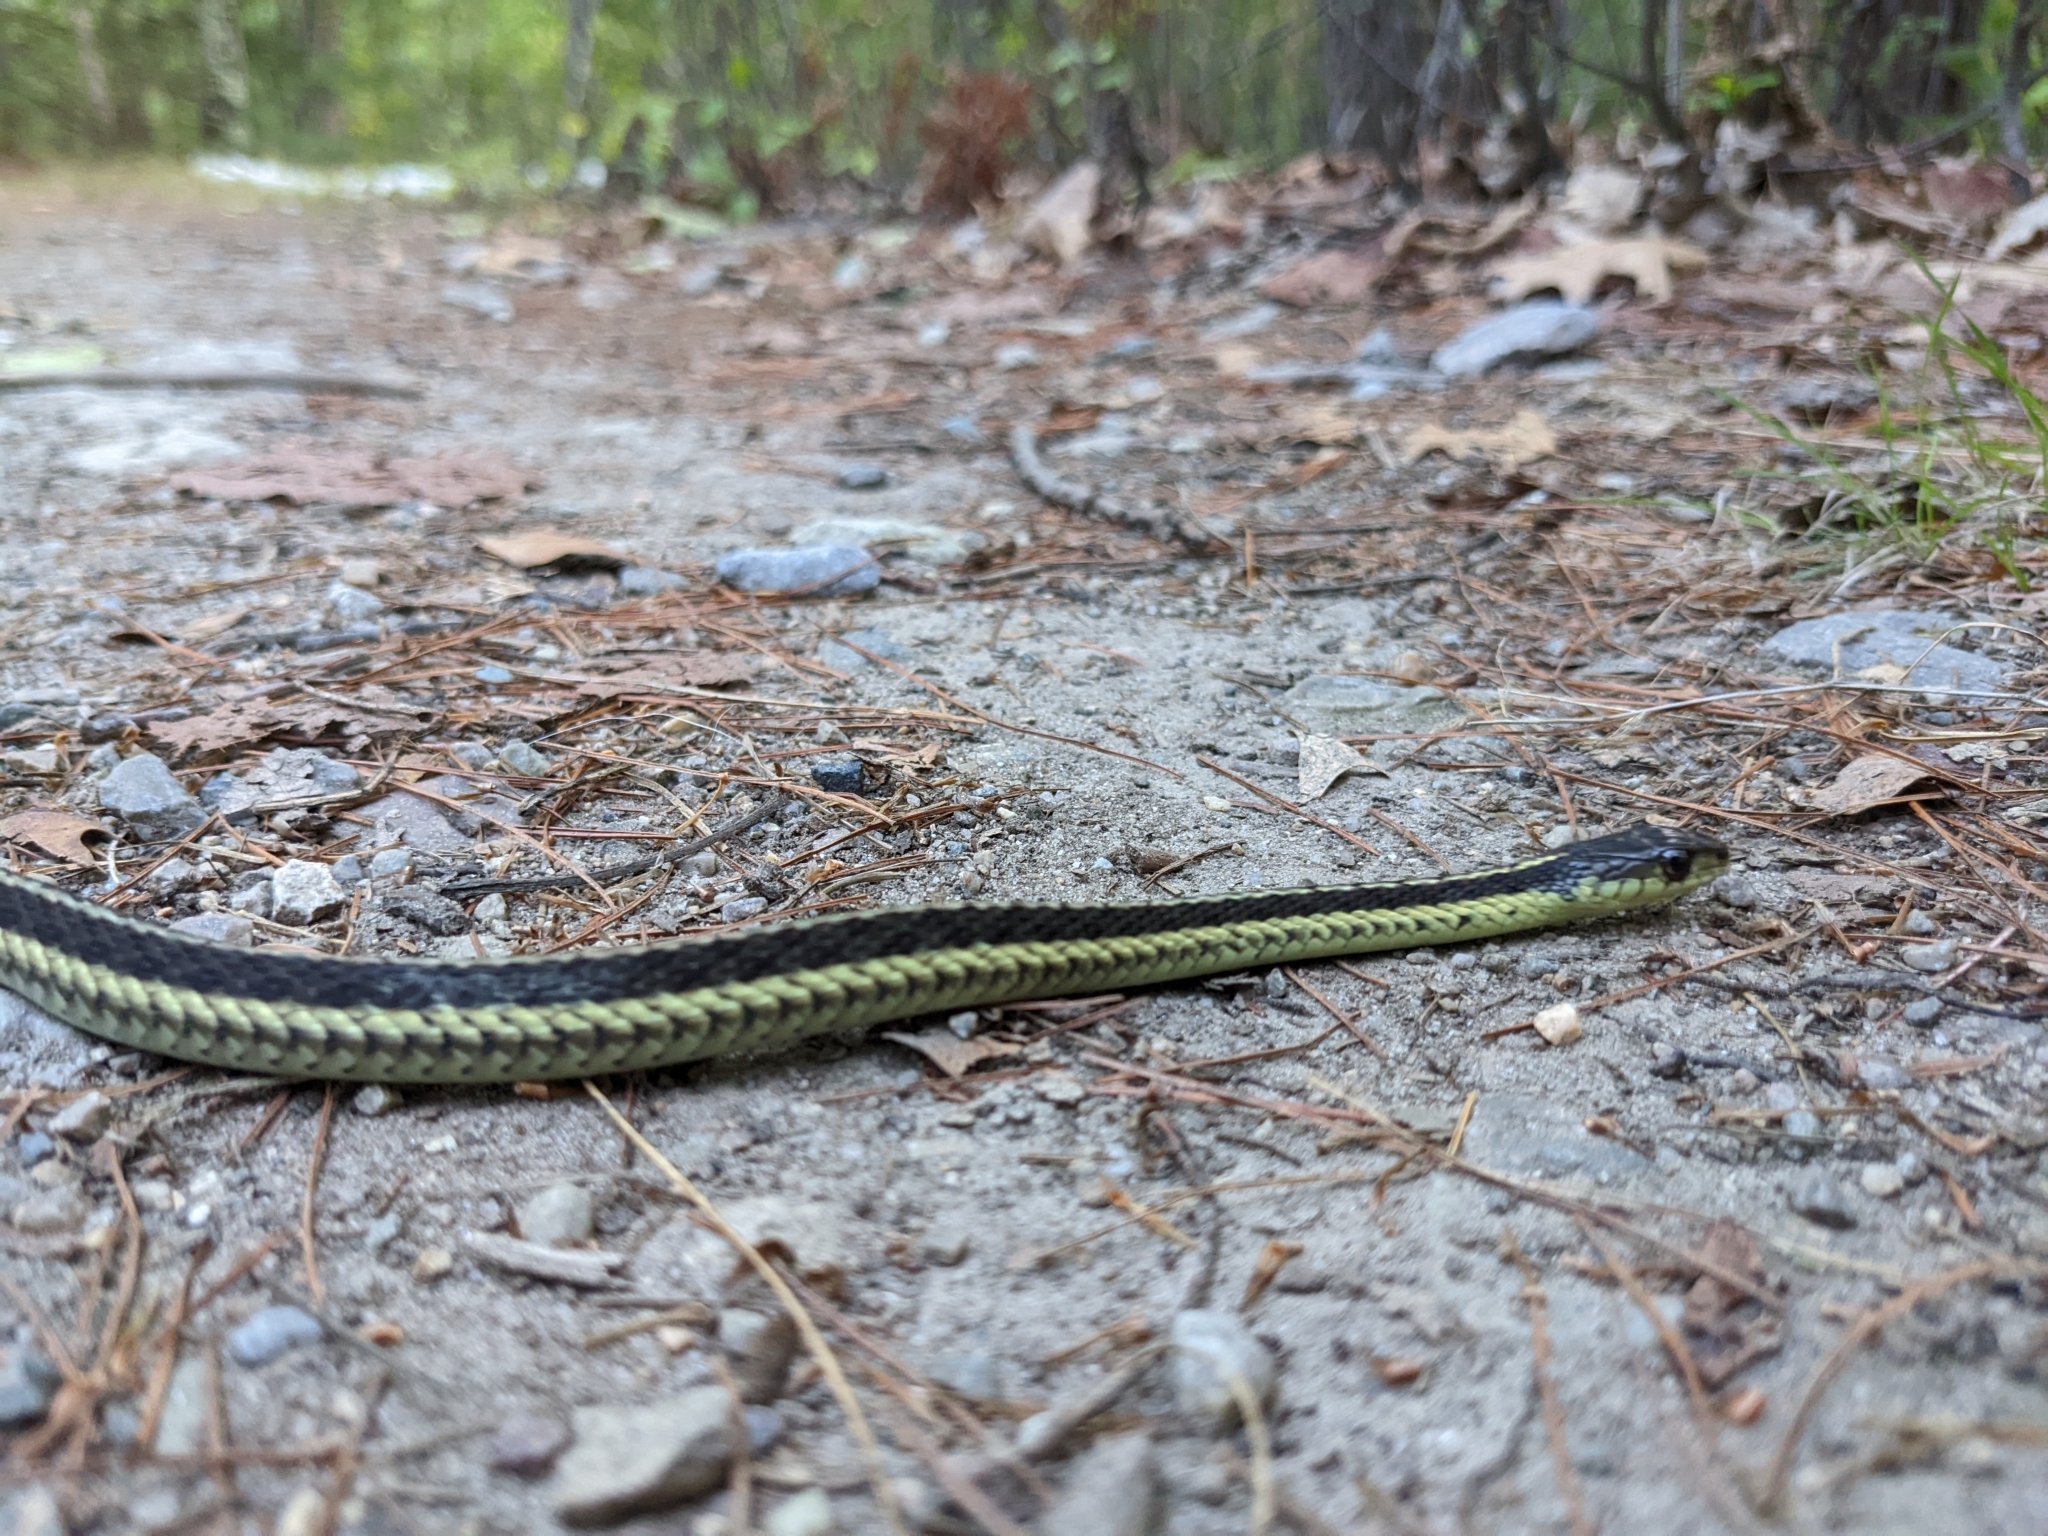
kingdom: Animalia
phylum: Chordata
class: Squamata
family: Colubridae
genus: Thamnophis
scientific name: Thamnophis sirtalis
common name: Common garter snake
